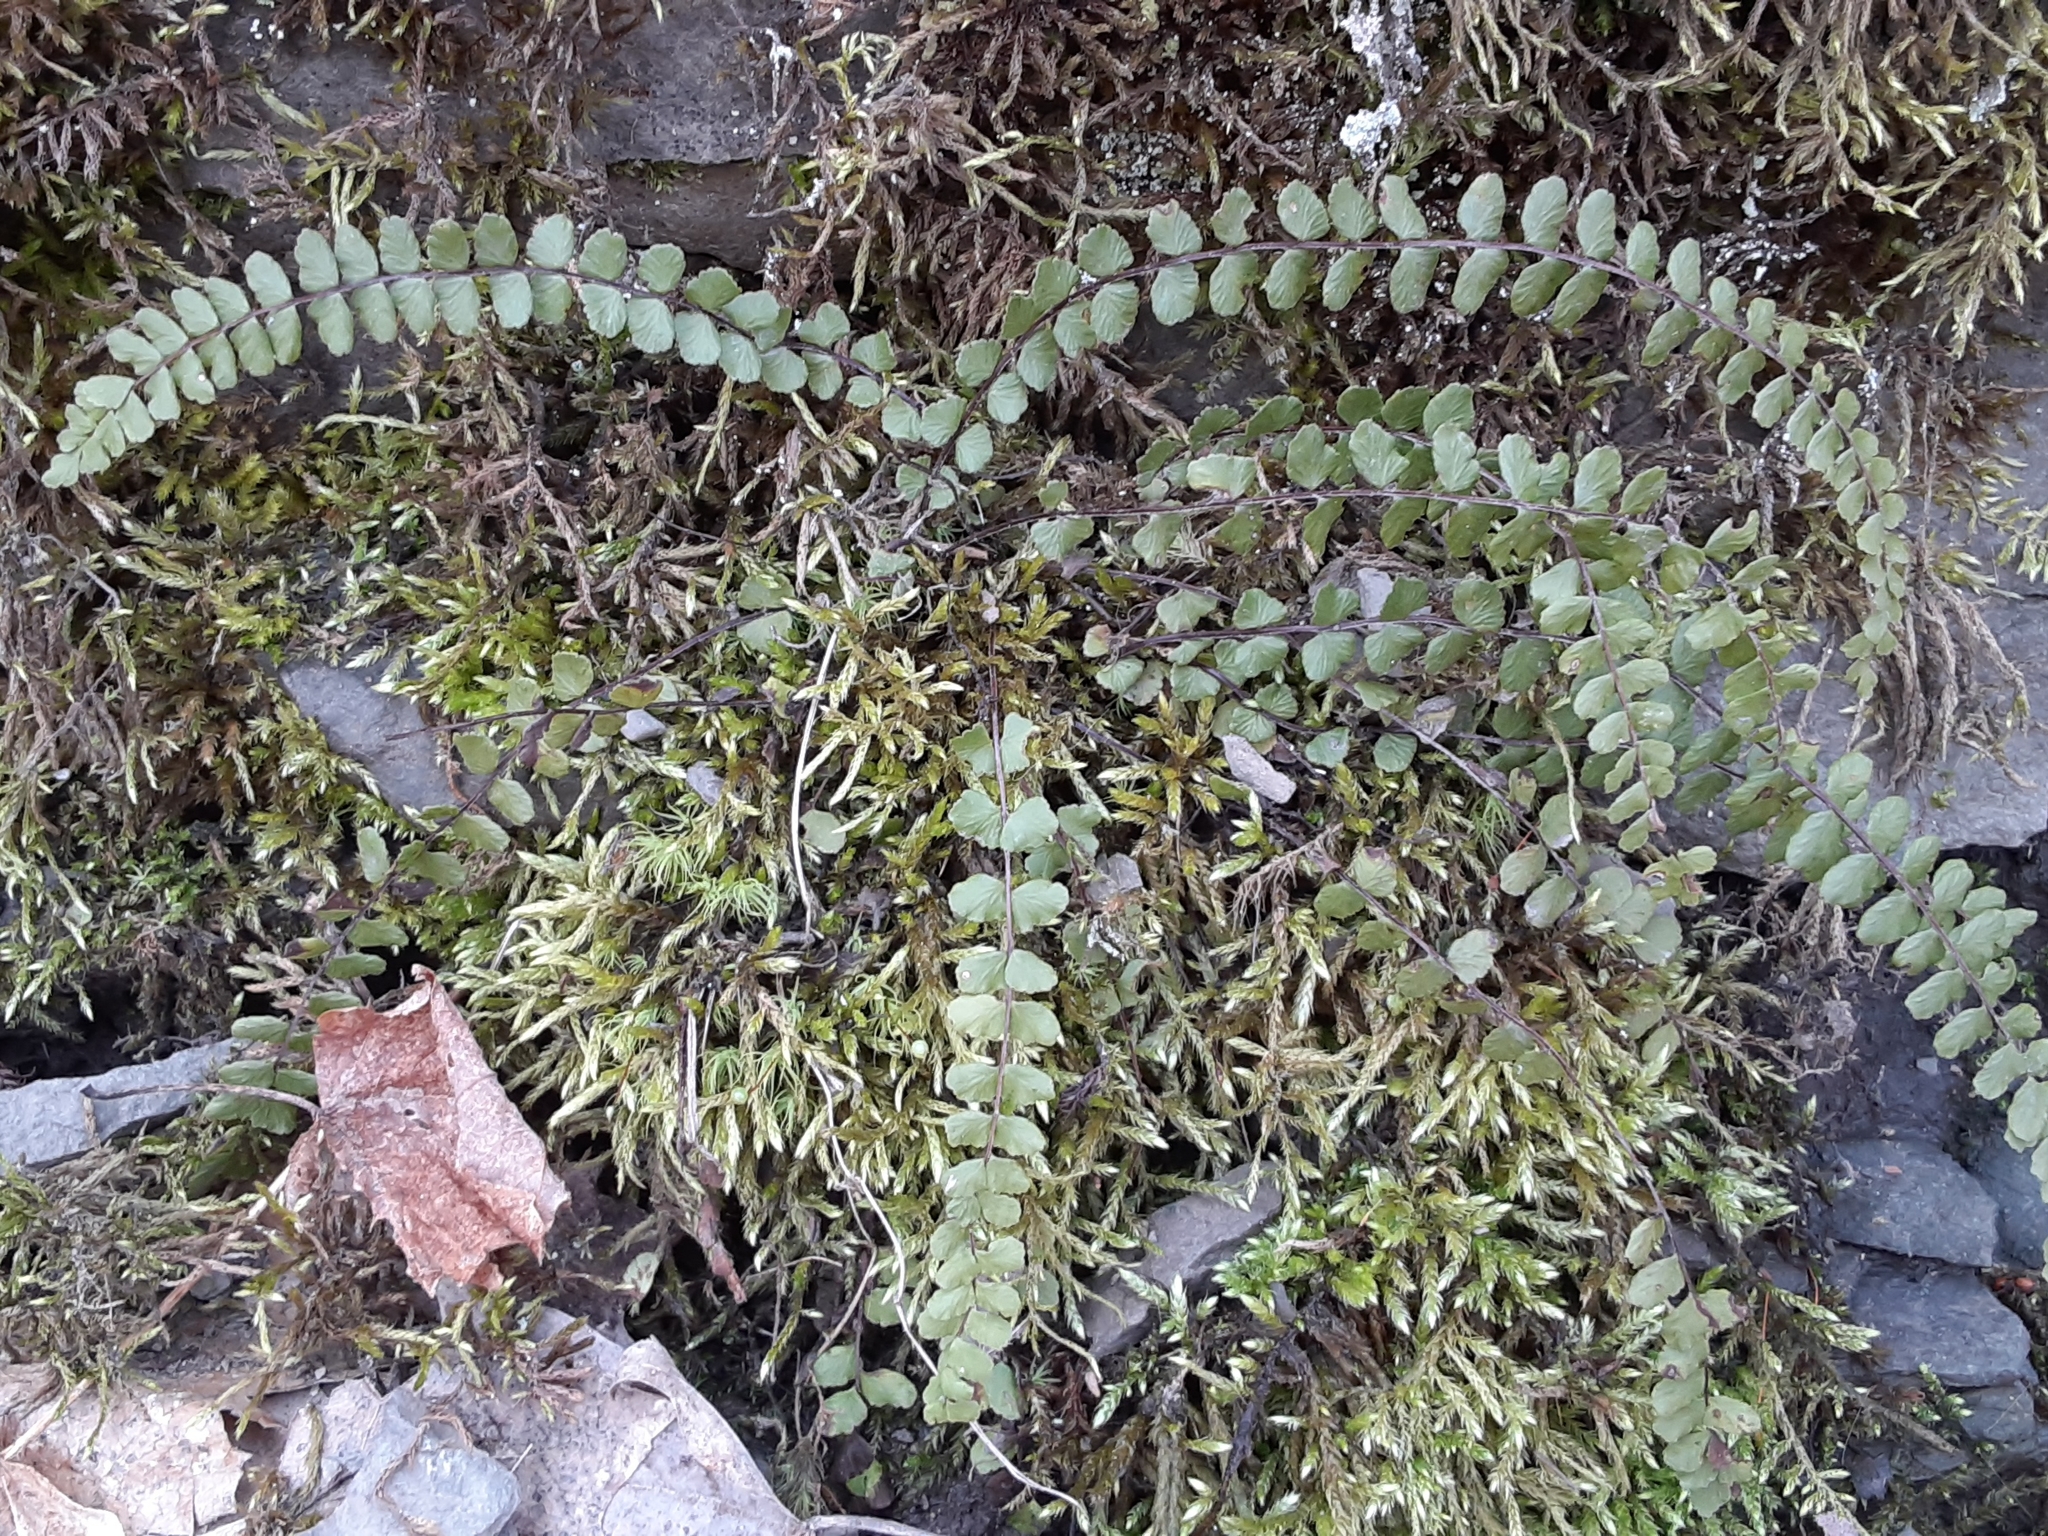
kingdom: Plantae
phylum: Tracheophyta
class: Polypodiopsida
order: Polypodiales
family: Aspleniaceae
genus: Asplenium
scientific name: Asplenium trichomanes
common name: Maidenhair spleenwort
